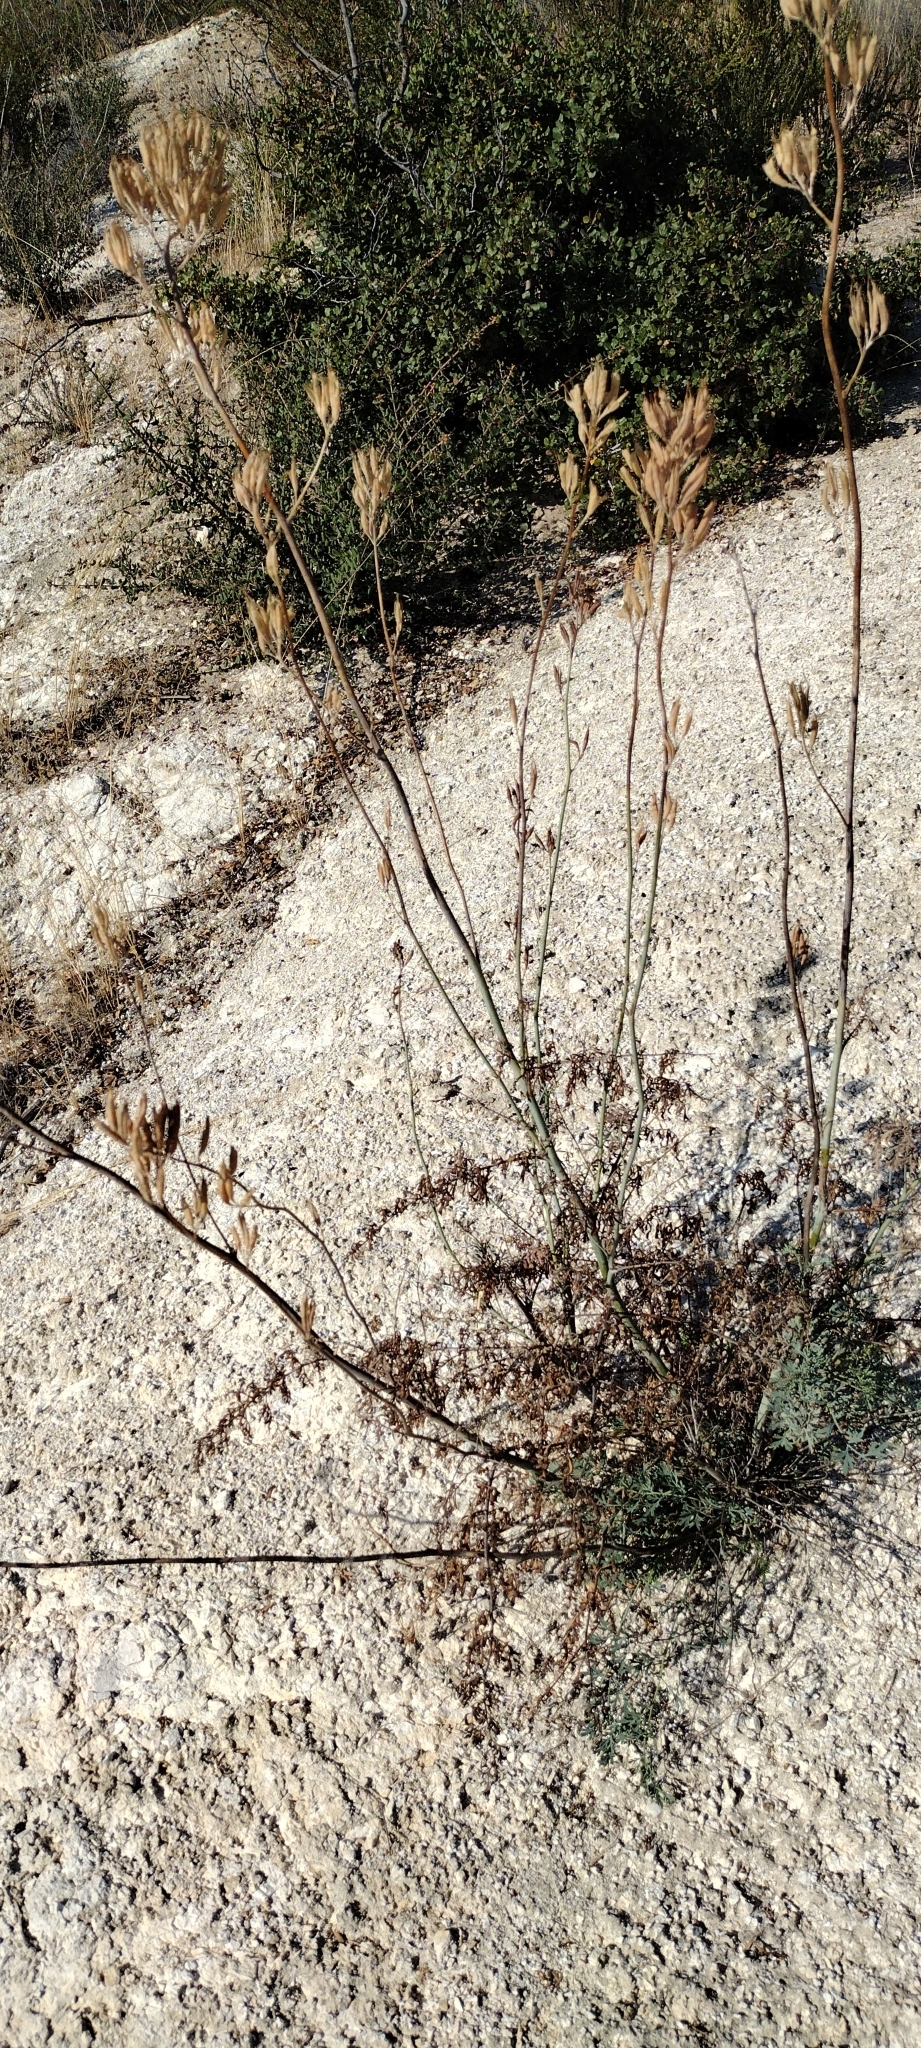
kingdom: Plantae
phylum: Tracheophyta
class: Magnoliopsida
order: Ranunculales
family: Papaveraceae
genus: Ehrendorferia
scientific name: Ehrendorferia chrysantha
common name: Golden eardrops
